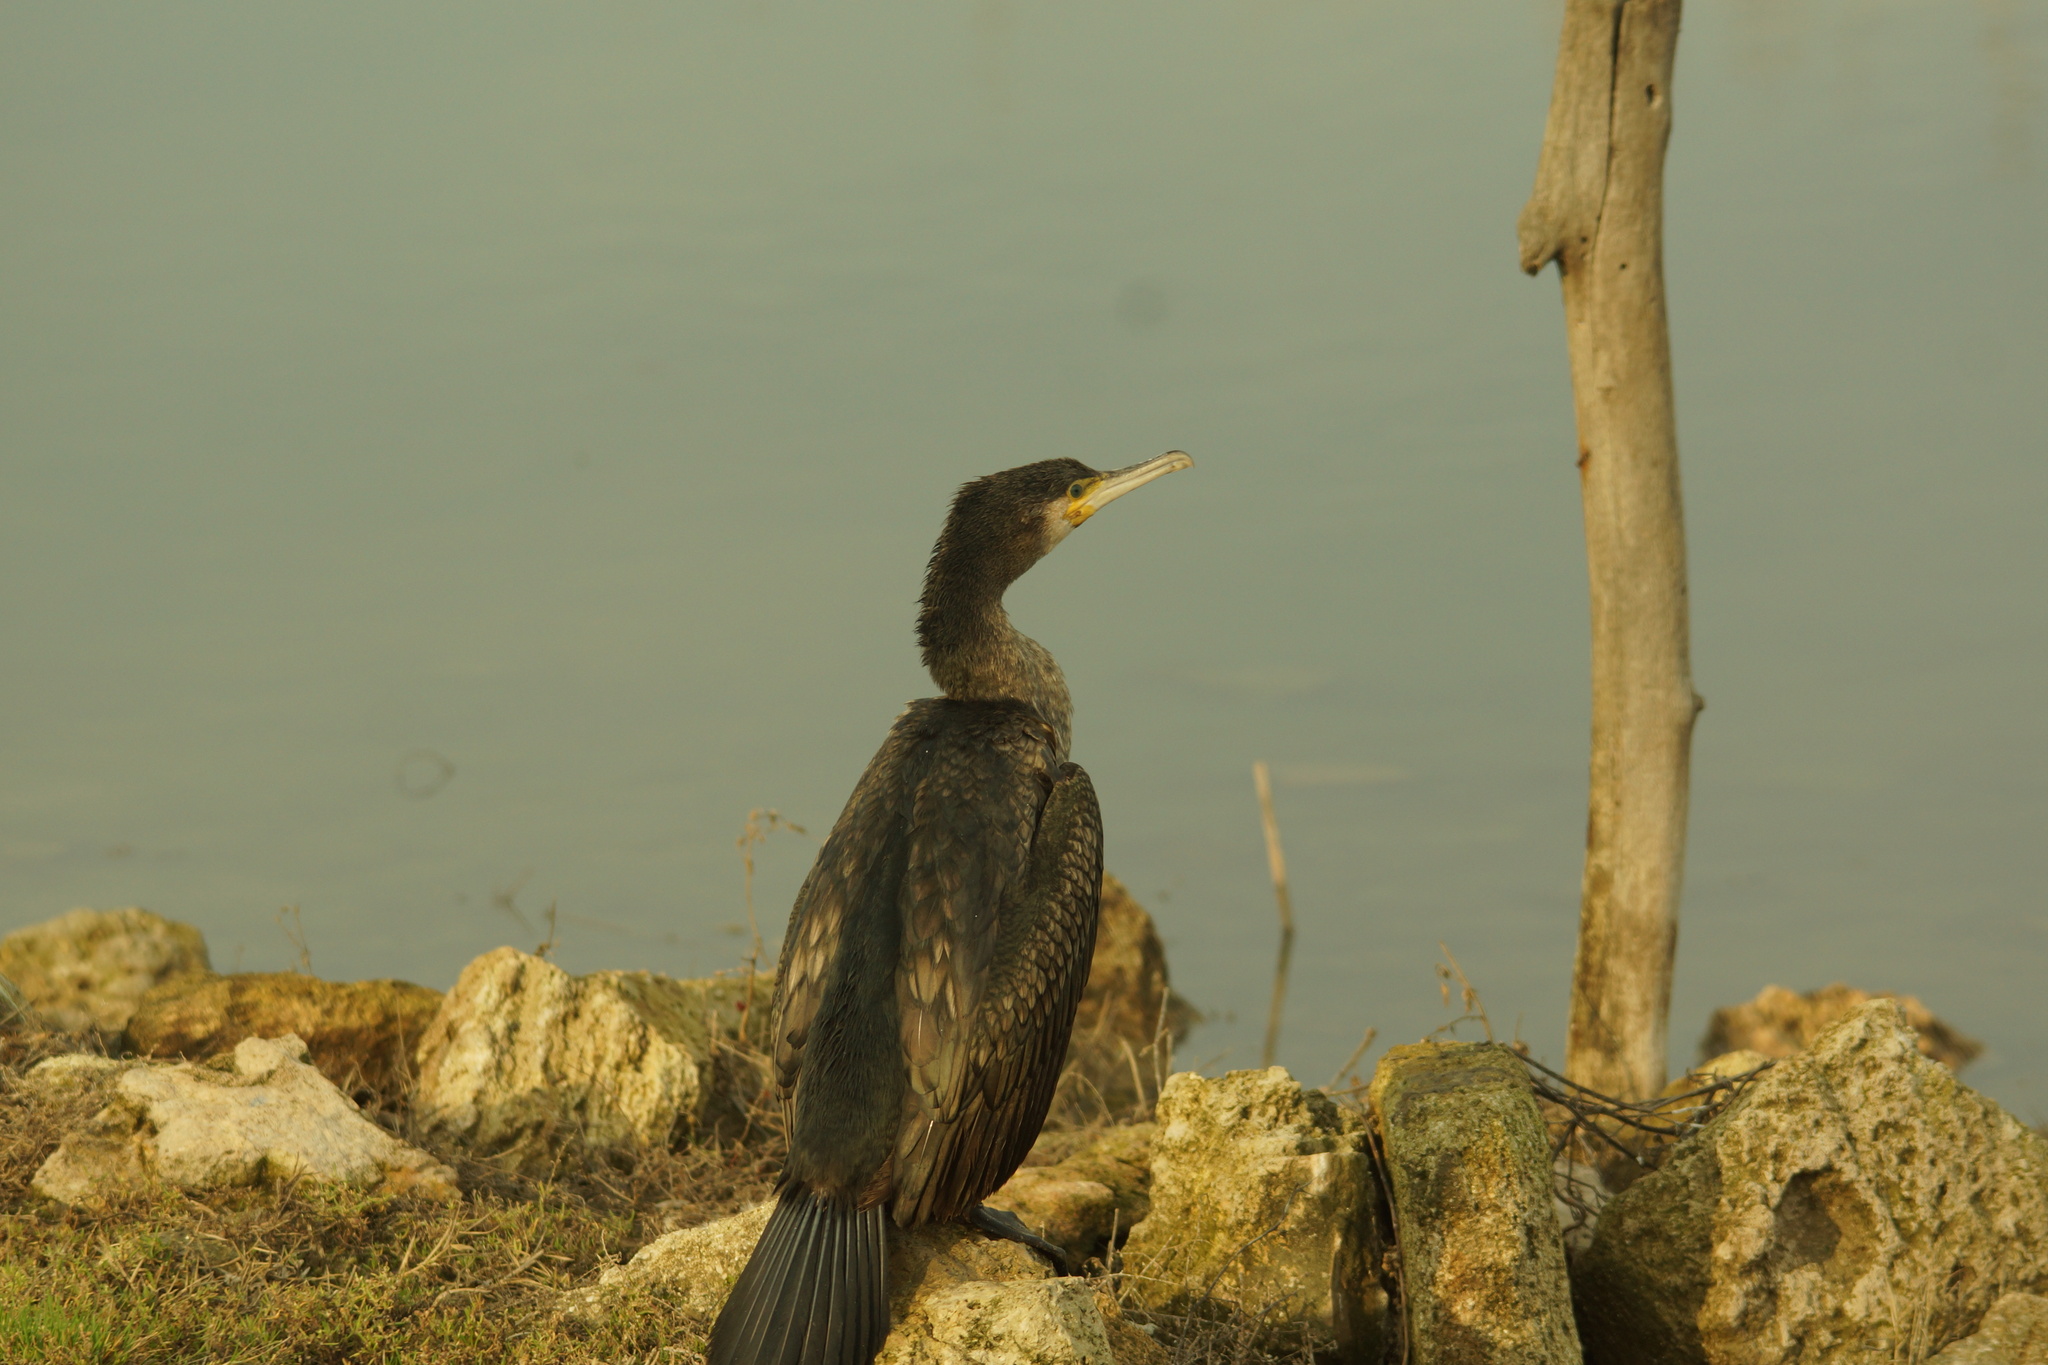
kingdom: Animalia
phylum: Chordata
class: Aves
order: Suliformes
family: Phalacrocoracidae
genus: Phalacrocorax
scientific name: Phalacrocorax carbo
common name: Great cormorant
